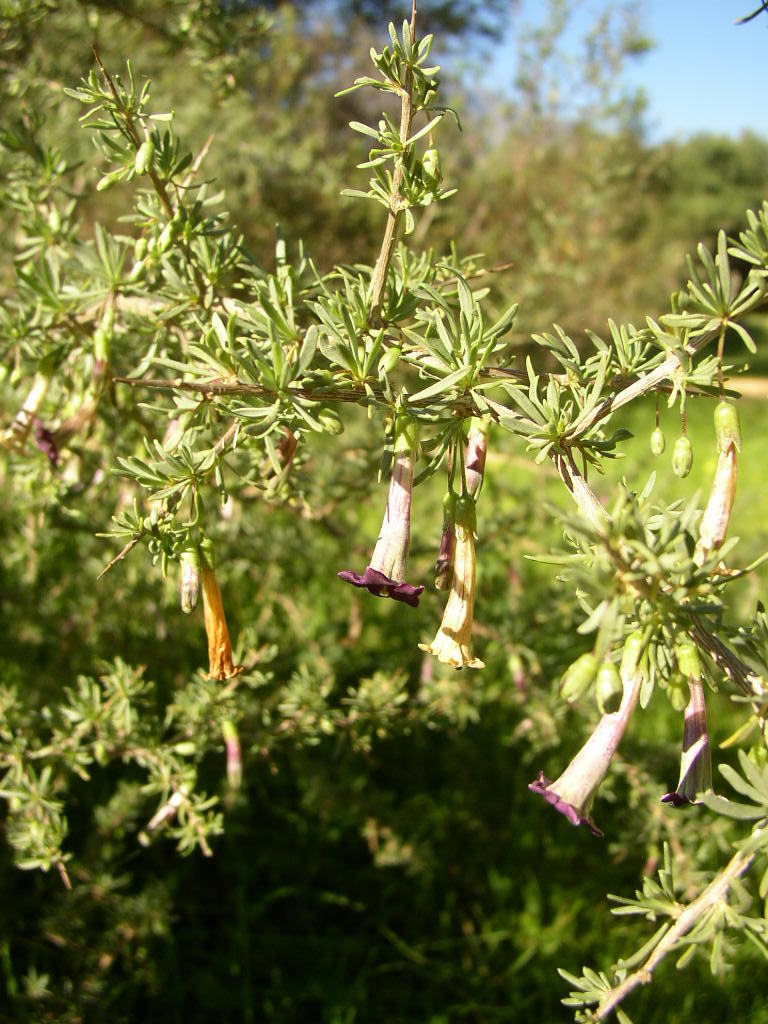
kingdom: Plantae
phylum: Tracheophyta
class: Magnoliopsida
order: Solanales
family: Solanaceae
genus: Lycium
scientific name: Lycium afrum
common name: Kaffir boxthorn
